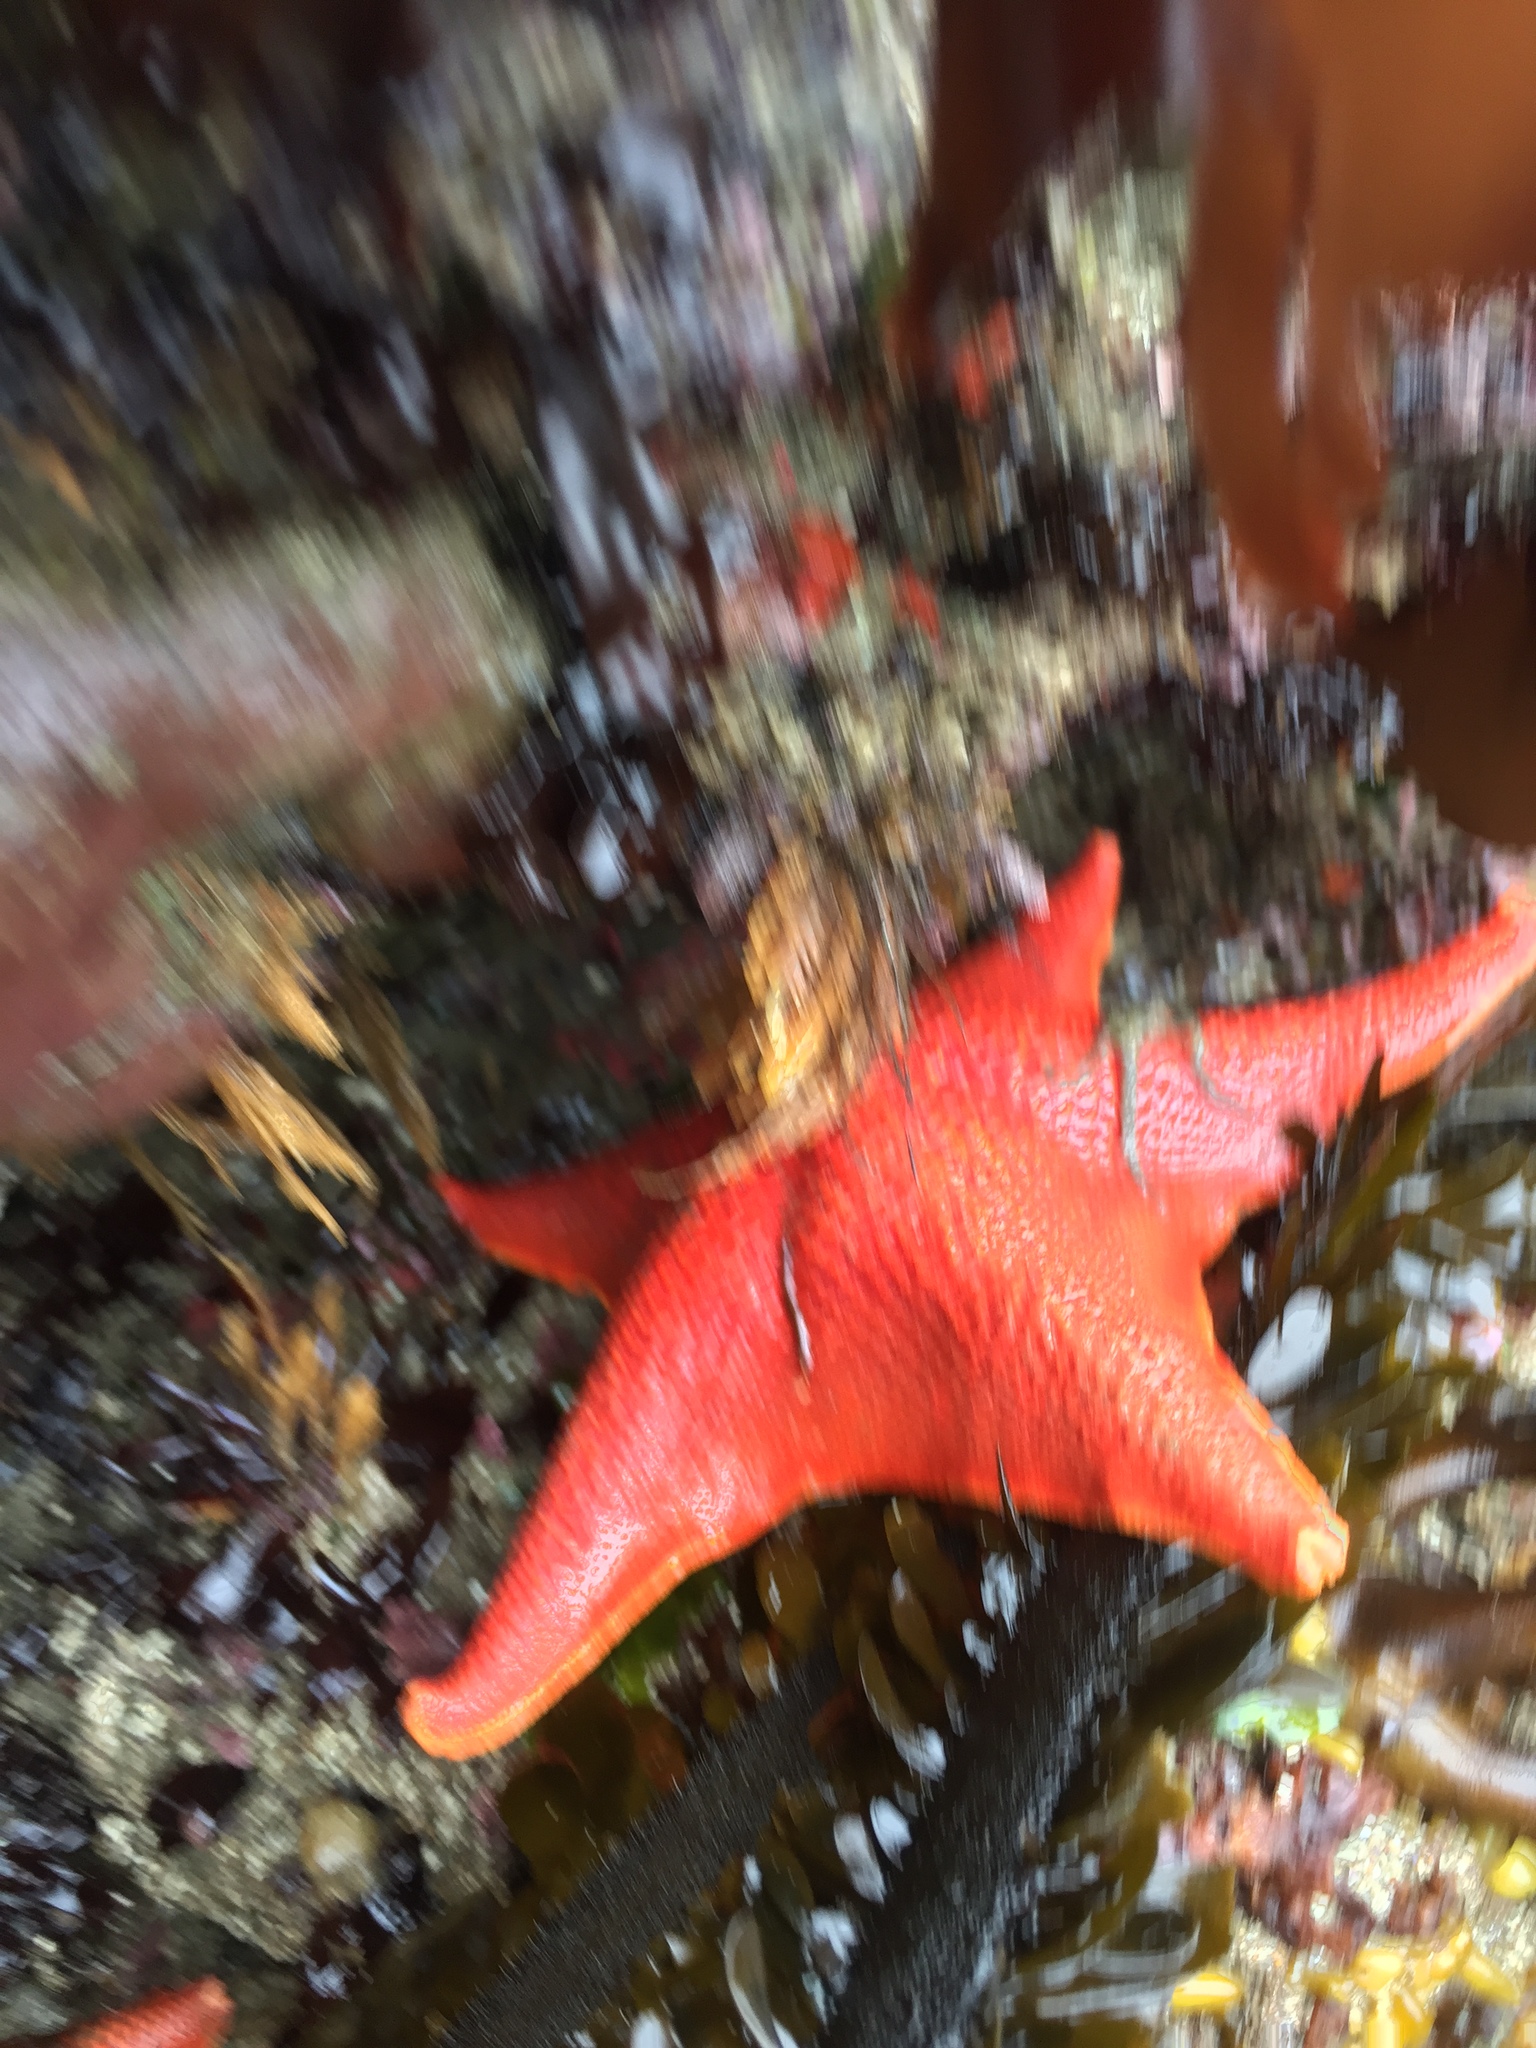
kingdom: Animalia
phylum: Echinodermata
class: Asteroidea
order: Valvatida
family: Asterinidae
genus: Patiria
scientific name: Patiria miniata
